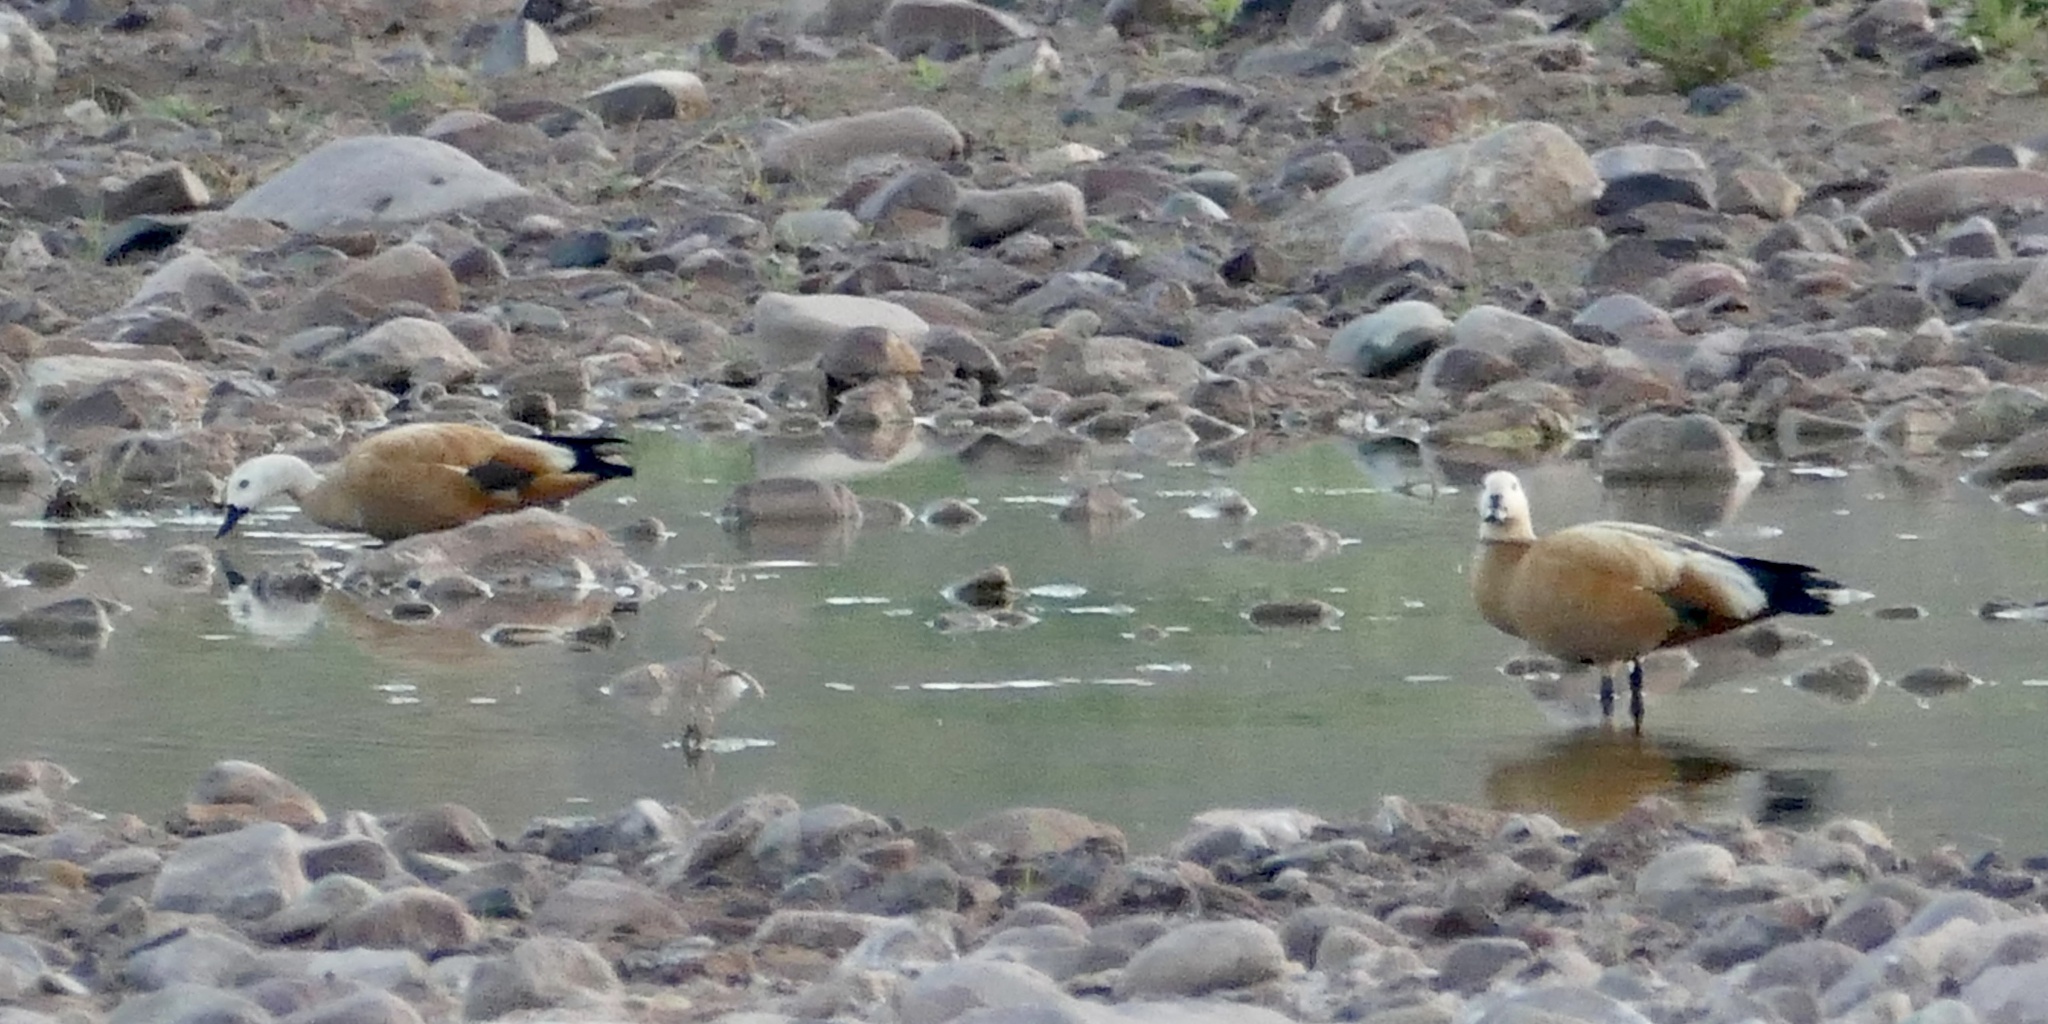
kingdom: Animalia
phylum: Chordata
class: Aves
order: Anseriformes
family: Anatidae
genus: Tadorna
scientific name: Tadorna ferruginea
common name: Ruddy shelduck
